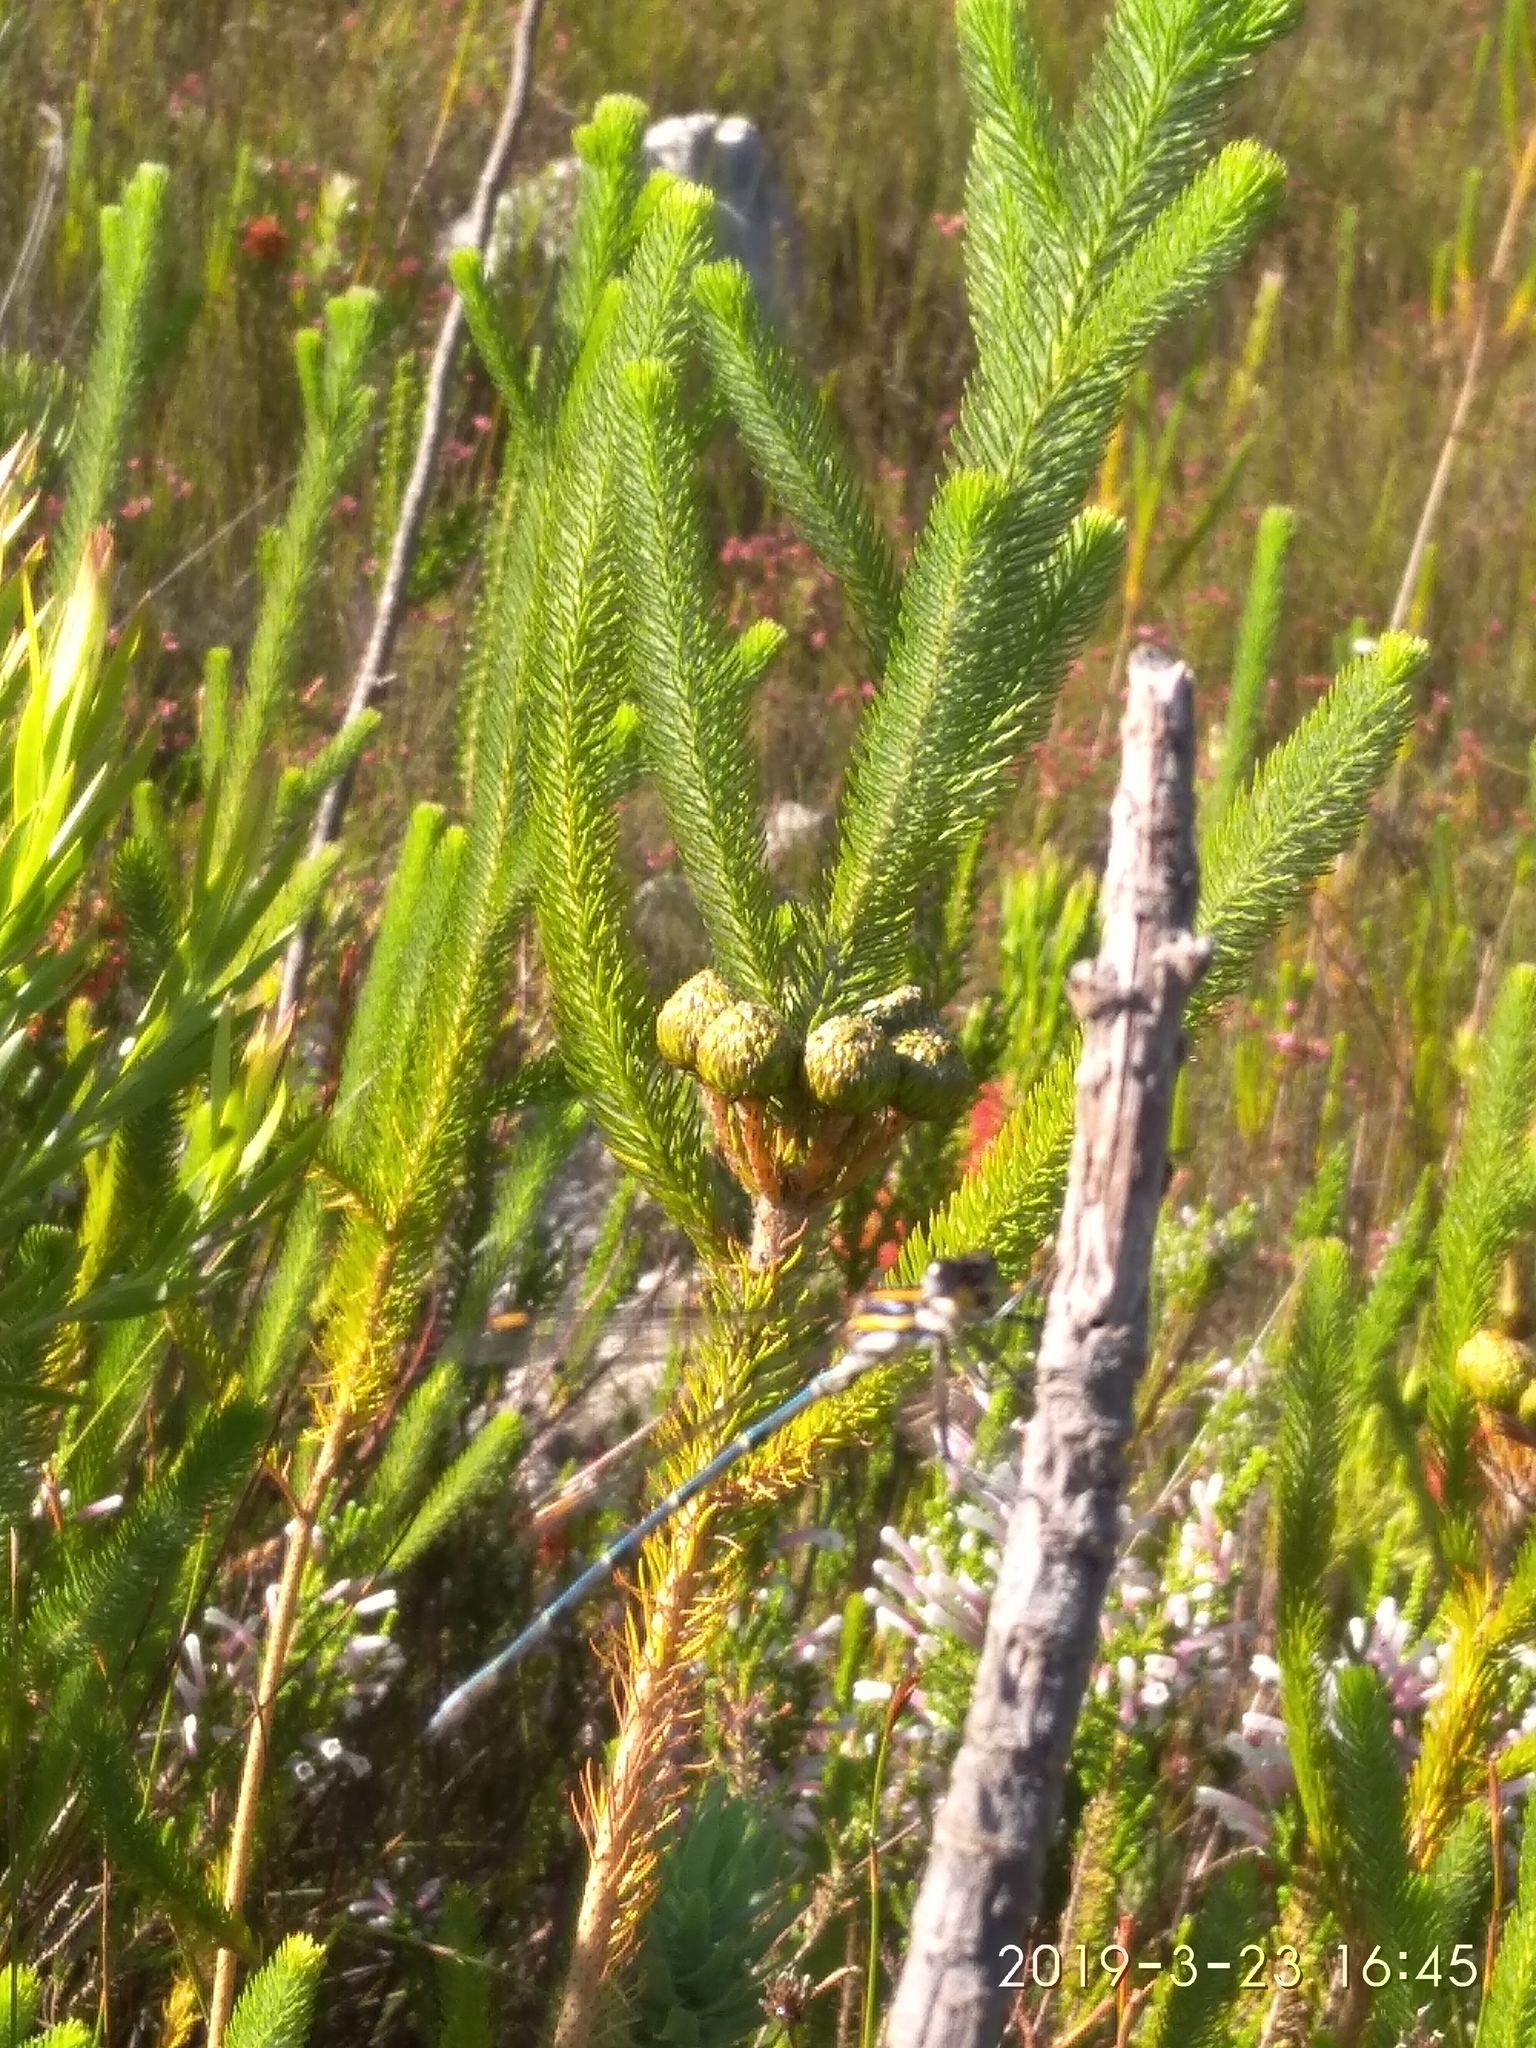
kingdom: Animalia
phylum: Arthropoda
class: Insecta
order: Odonata
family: Synlestidae
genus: Chlorolestes
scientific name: Chlorolestes conspicuus
